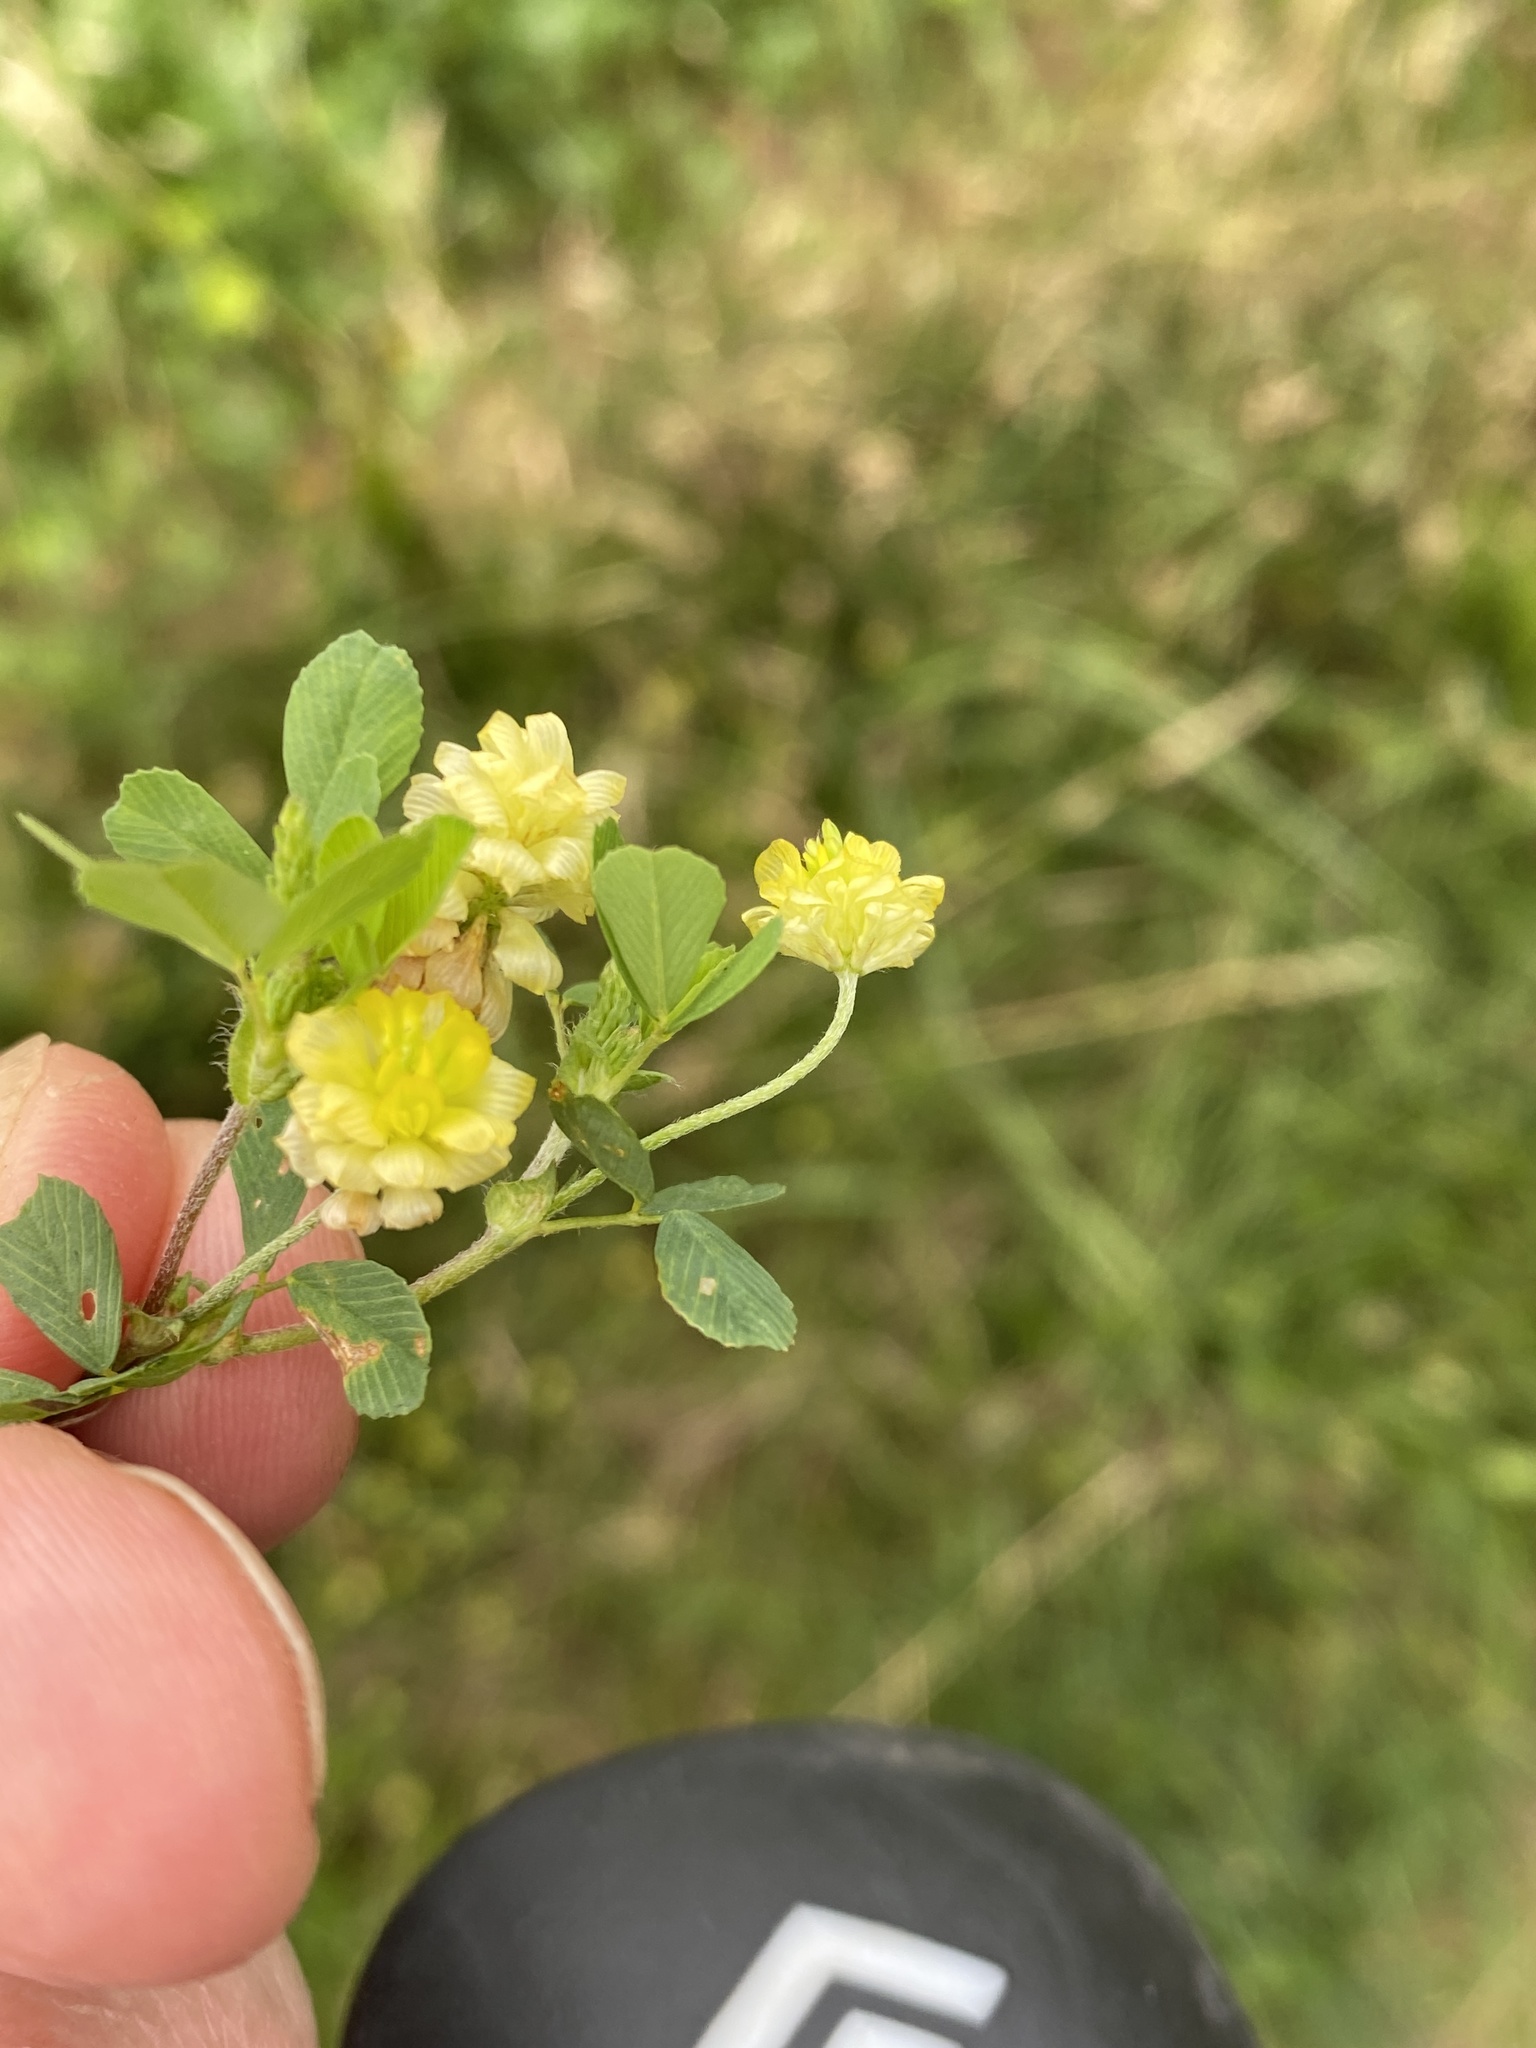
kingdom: Plantae
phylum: Tracheophyta
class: Magnoliopsida
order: Fabales
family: Fabaceae
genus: Trifolium
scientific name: Trifolium campestre
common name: Field clover
